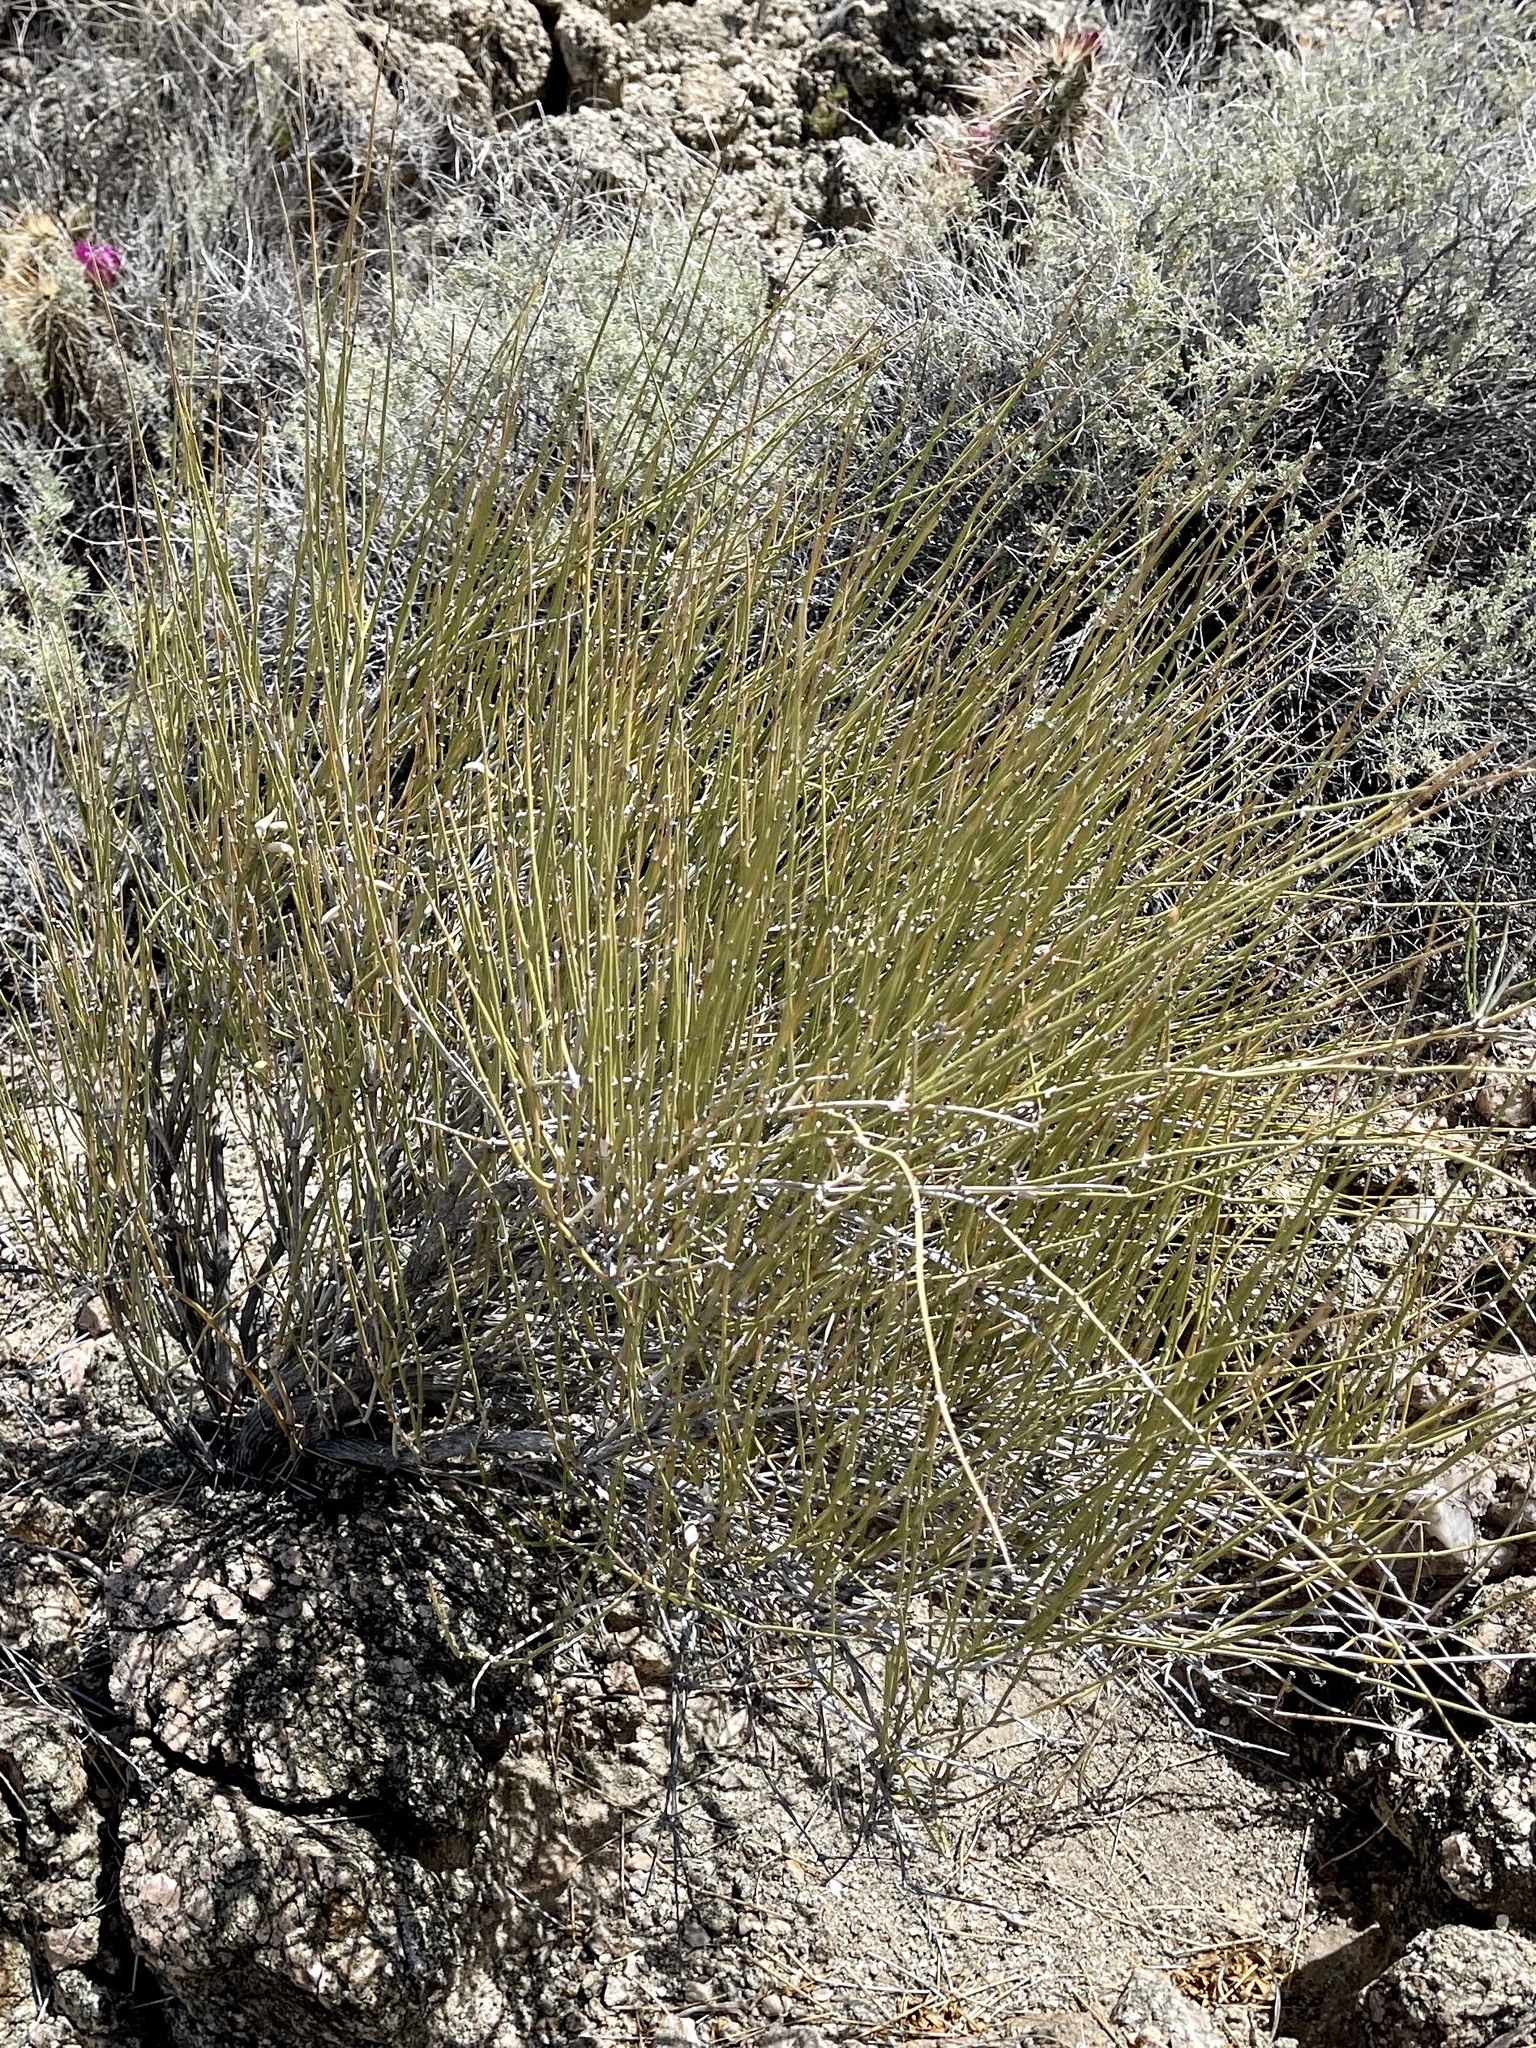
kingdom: Plantae
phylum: Tracheophyta
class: Gnetopsida
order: Ephedrales
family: Ephedraceae
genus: Ephedra
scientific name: Ephedra trifurca
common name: Mexican-tea
